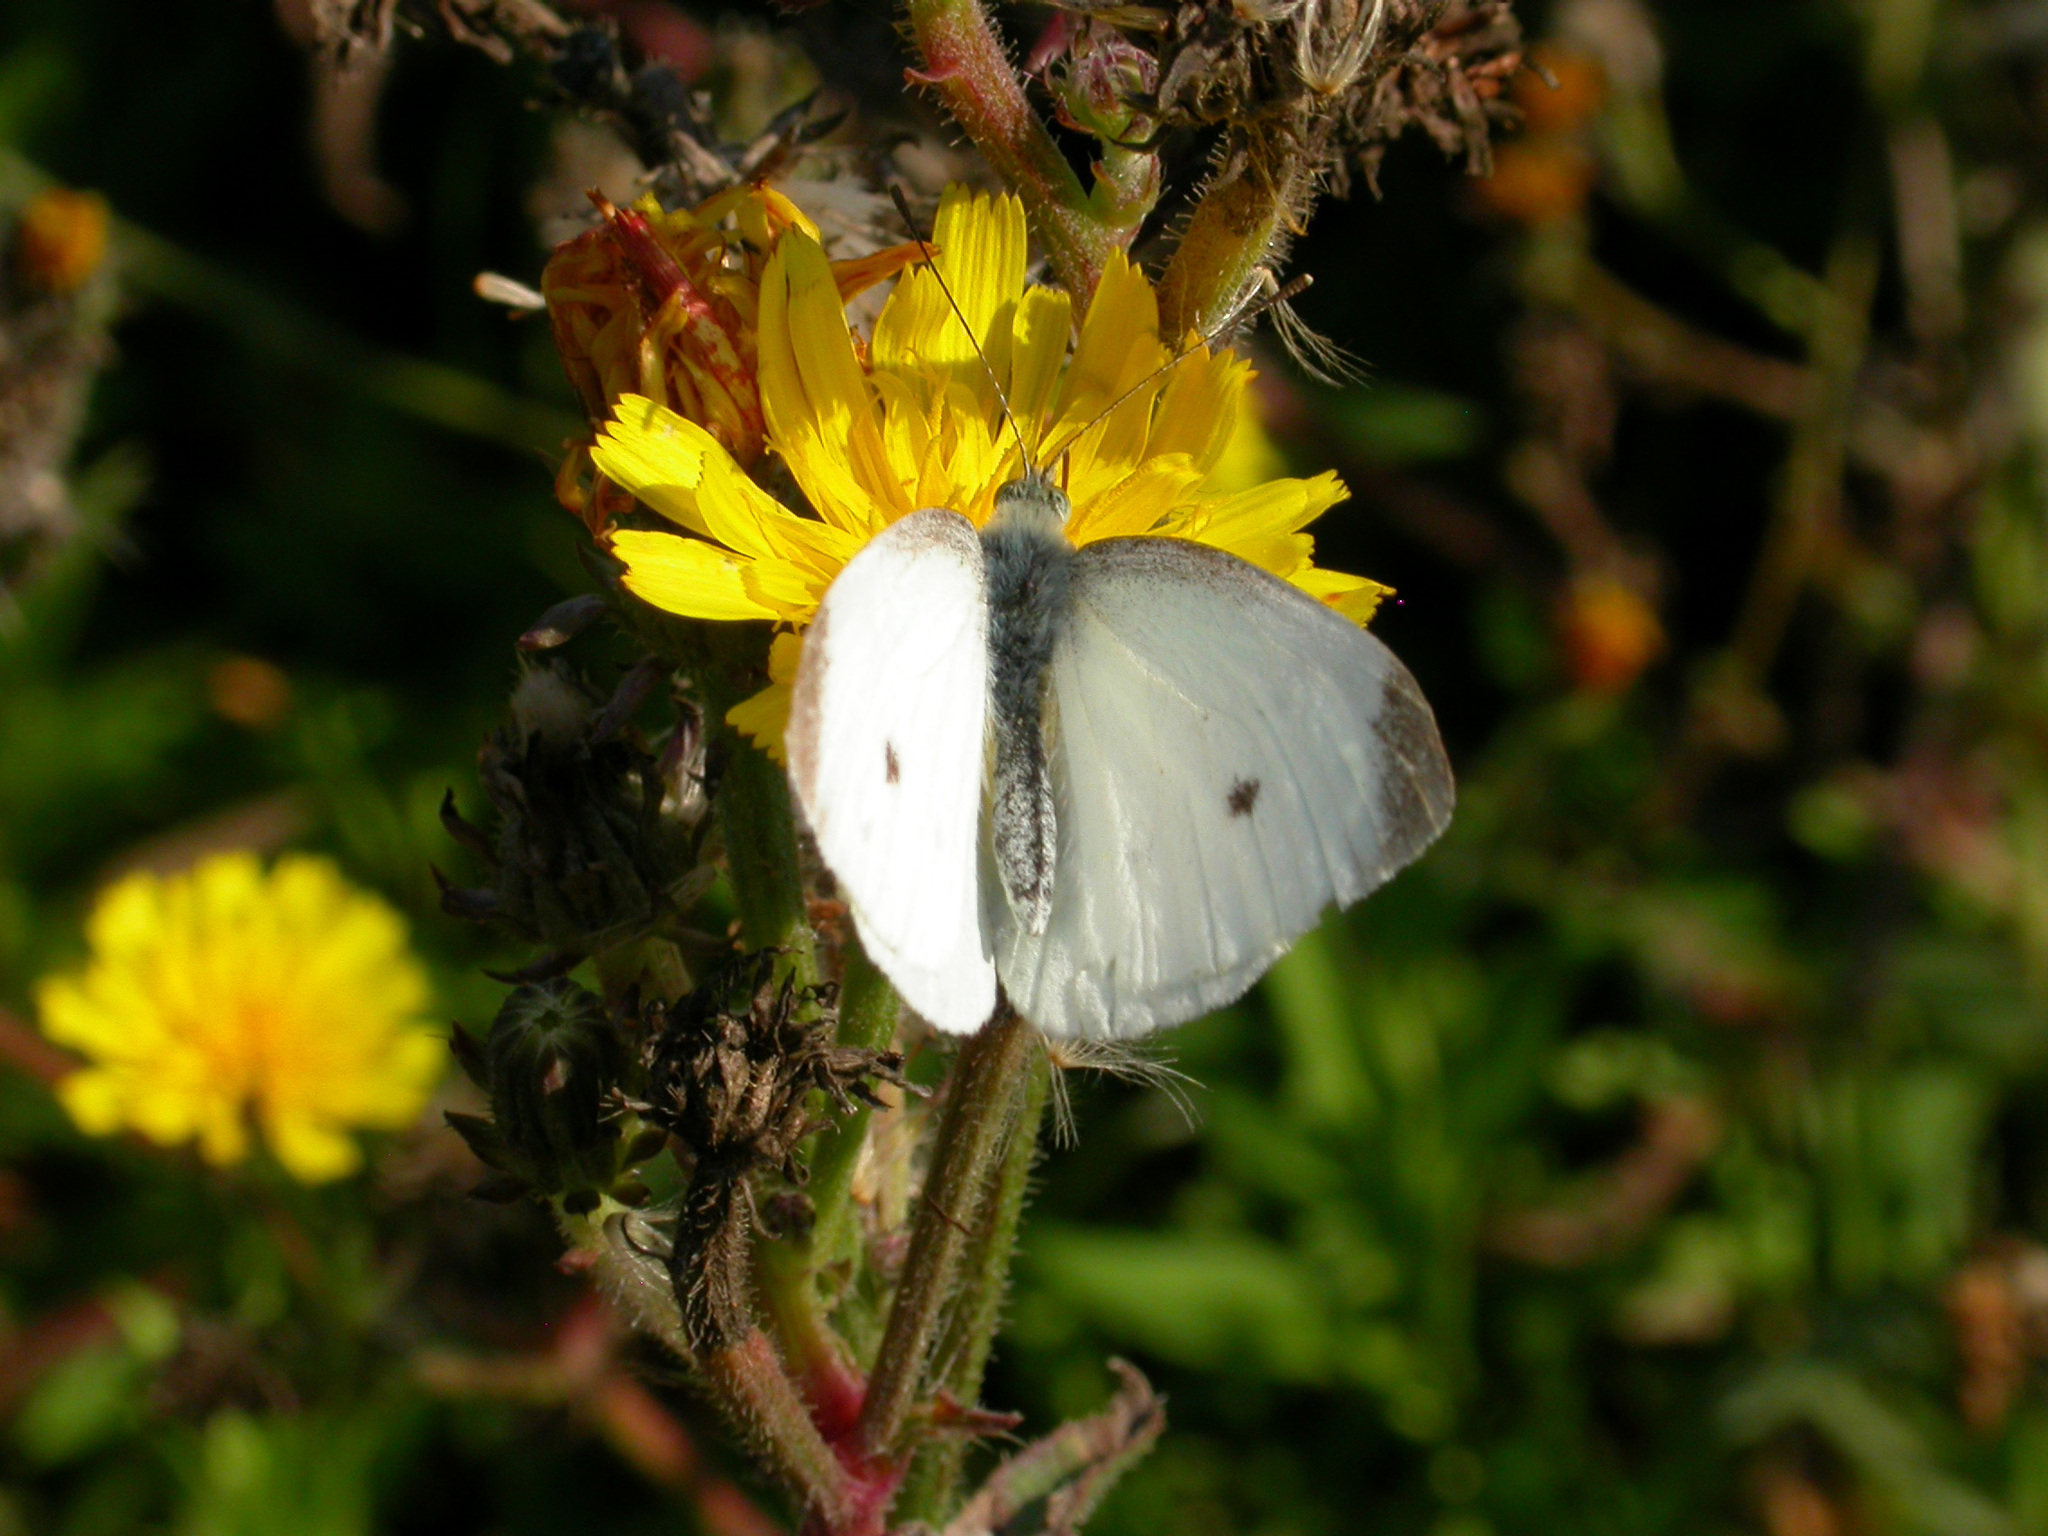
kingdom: Animalia
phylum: Arthropoda
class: Insecta
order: Lepidoptera
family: Pieridae
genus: Pieris
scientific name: Pieris rapae
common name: Small white
